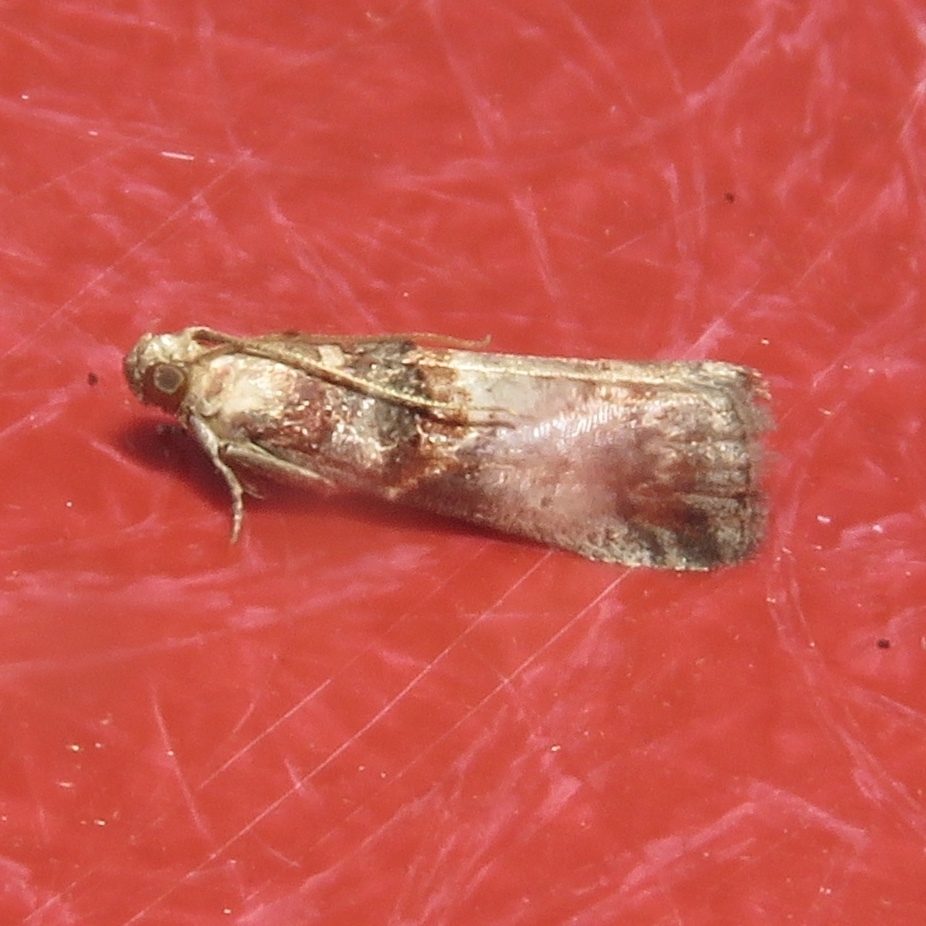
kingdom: Animalia
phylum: Arthropoda
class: Insecta
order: Lepidoptera
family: Pyralidae
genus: Acrobasis
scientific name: Acrobasis angusella
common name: Hickory leafstem borer moth
